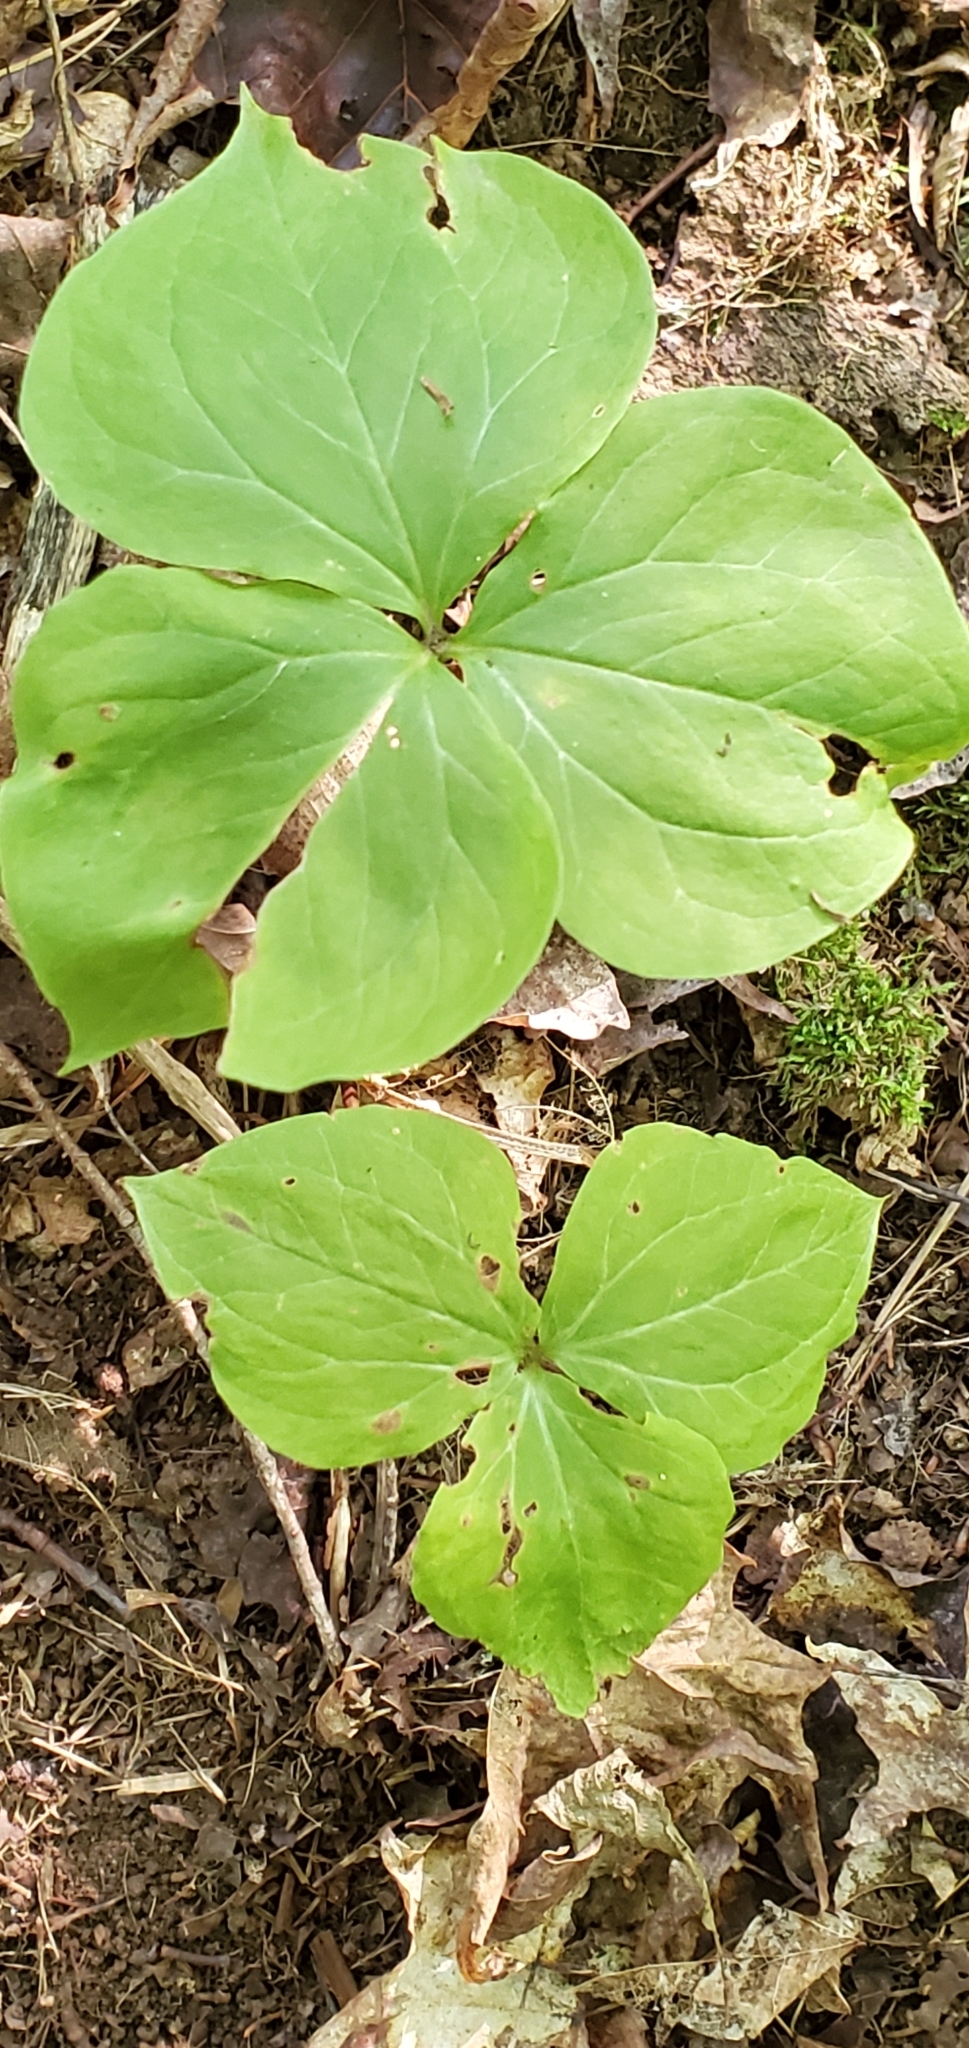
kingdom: Plantae
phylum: Tracheophyta
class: Liliopsida
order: Liliales
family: Melanthiaceae
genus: Trillium
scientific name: Trillium cernuum
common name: Nodding trillium
